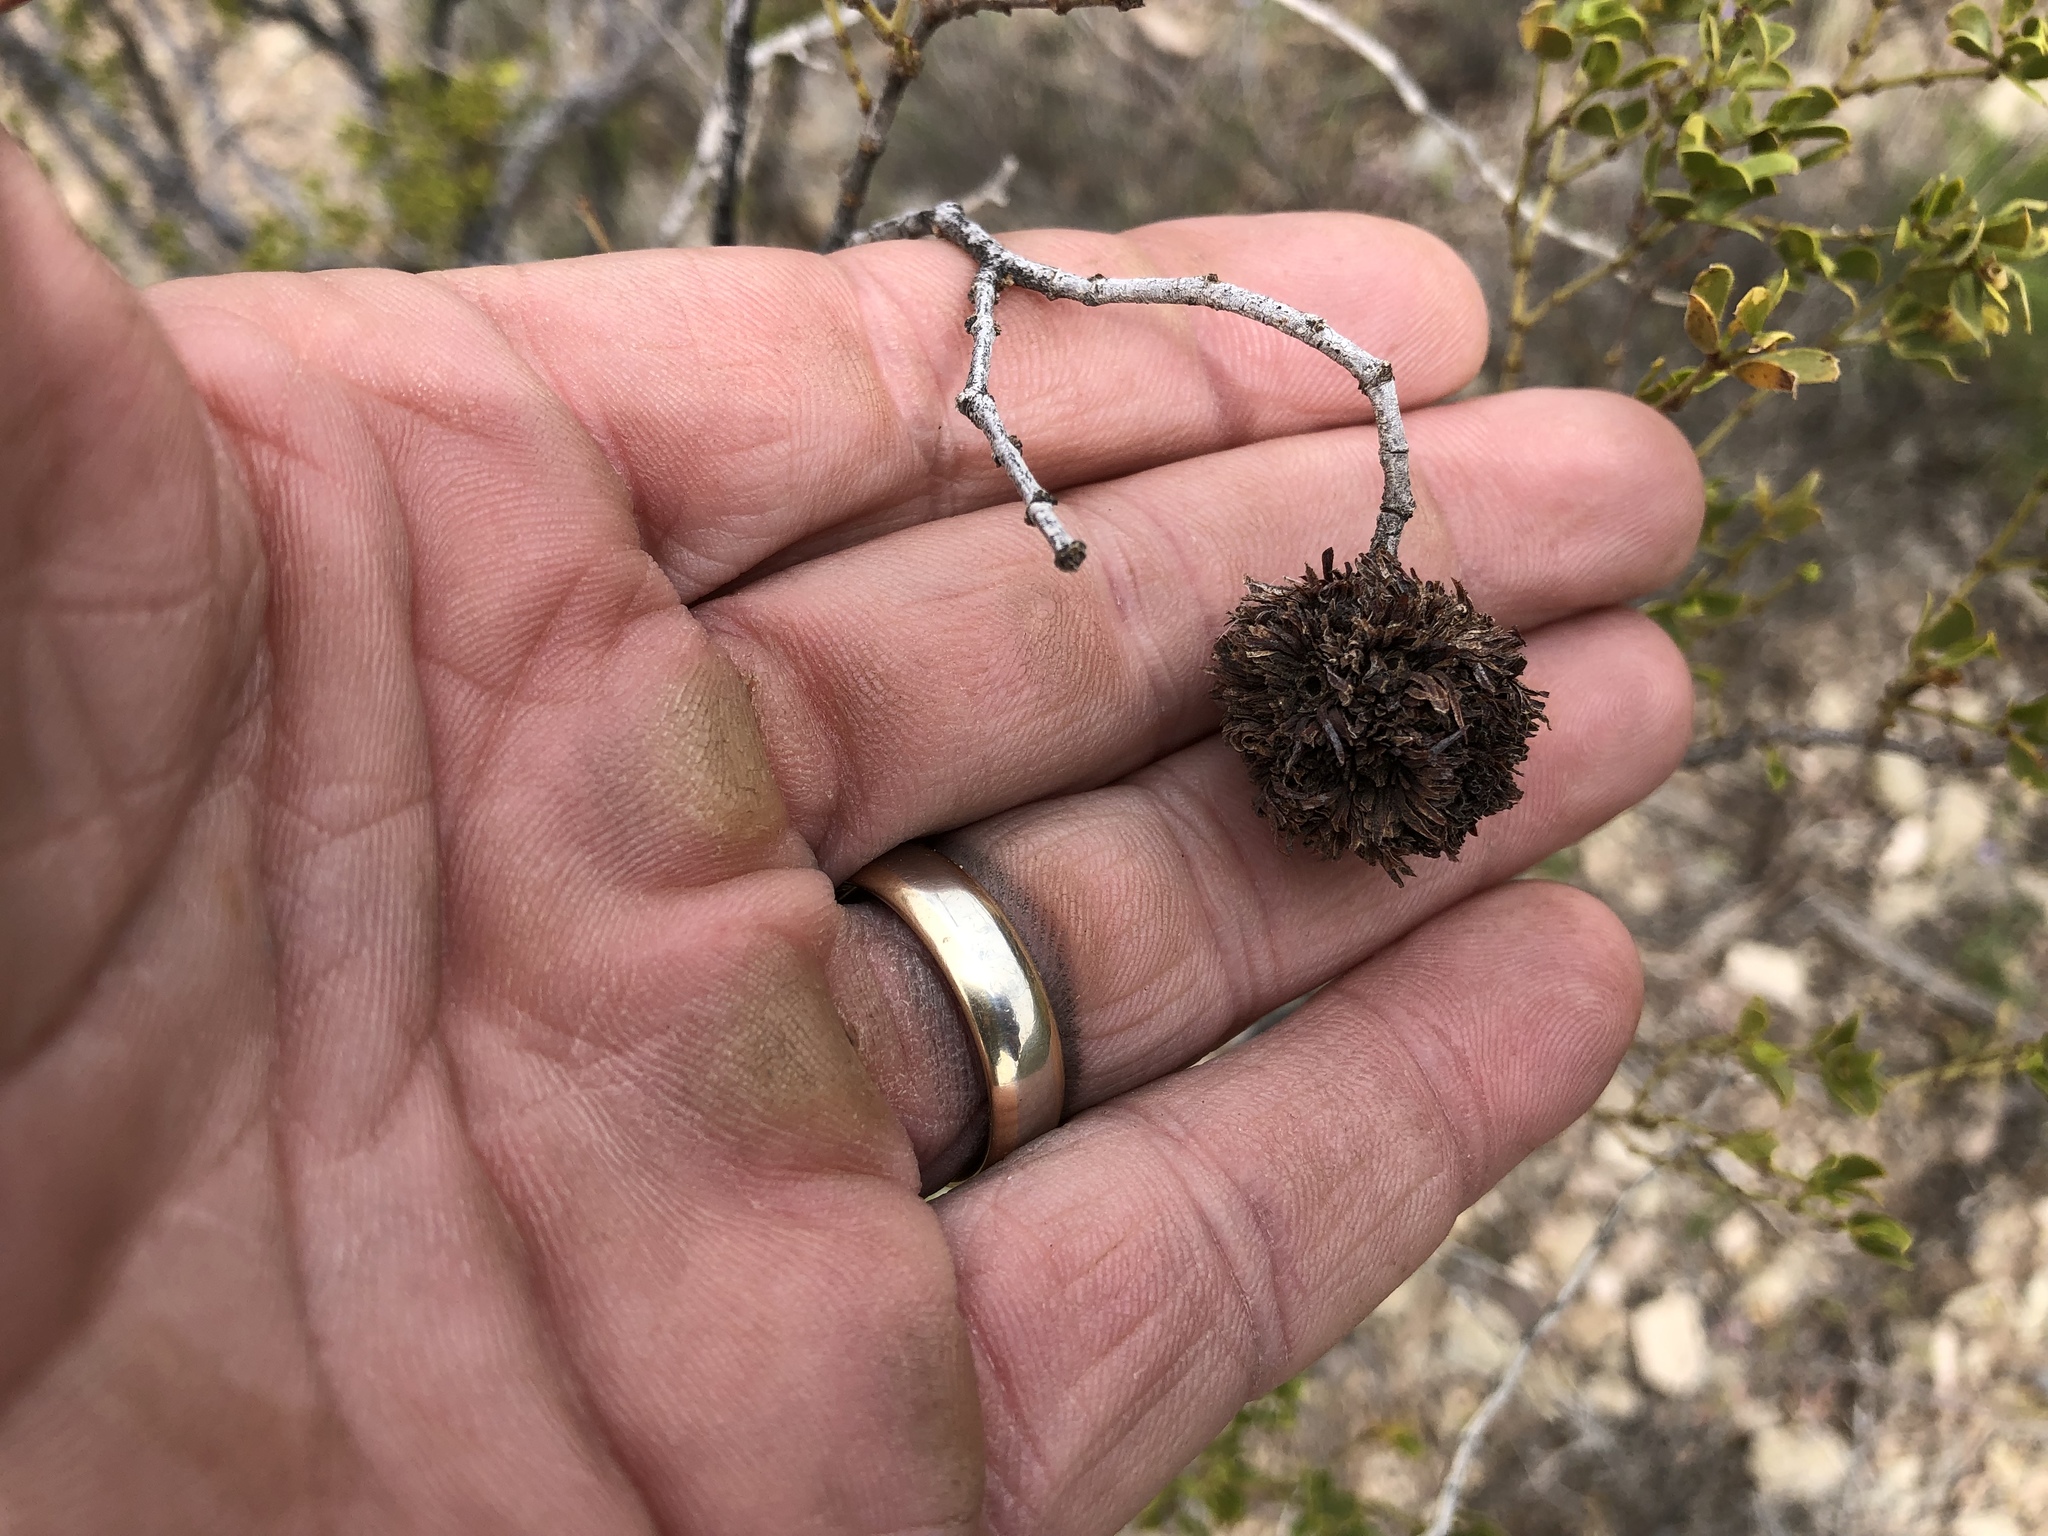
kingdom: Animalia
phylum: Arthropoda
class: Insecta
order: Diptera
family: Cecidomyiidae
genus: Asphondylia
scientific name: Asphondylia auripila
